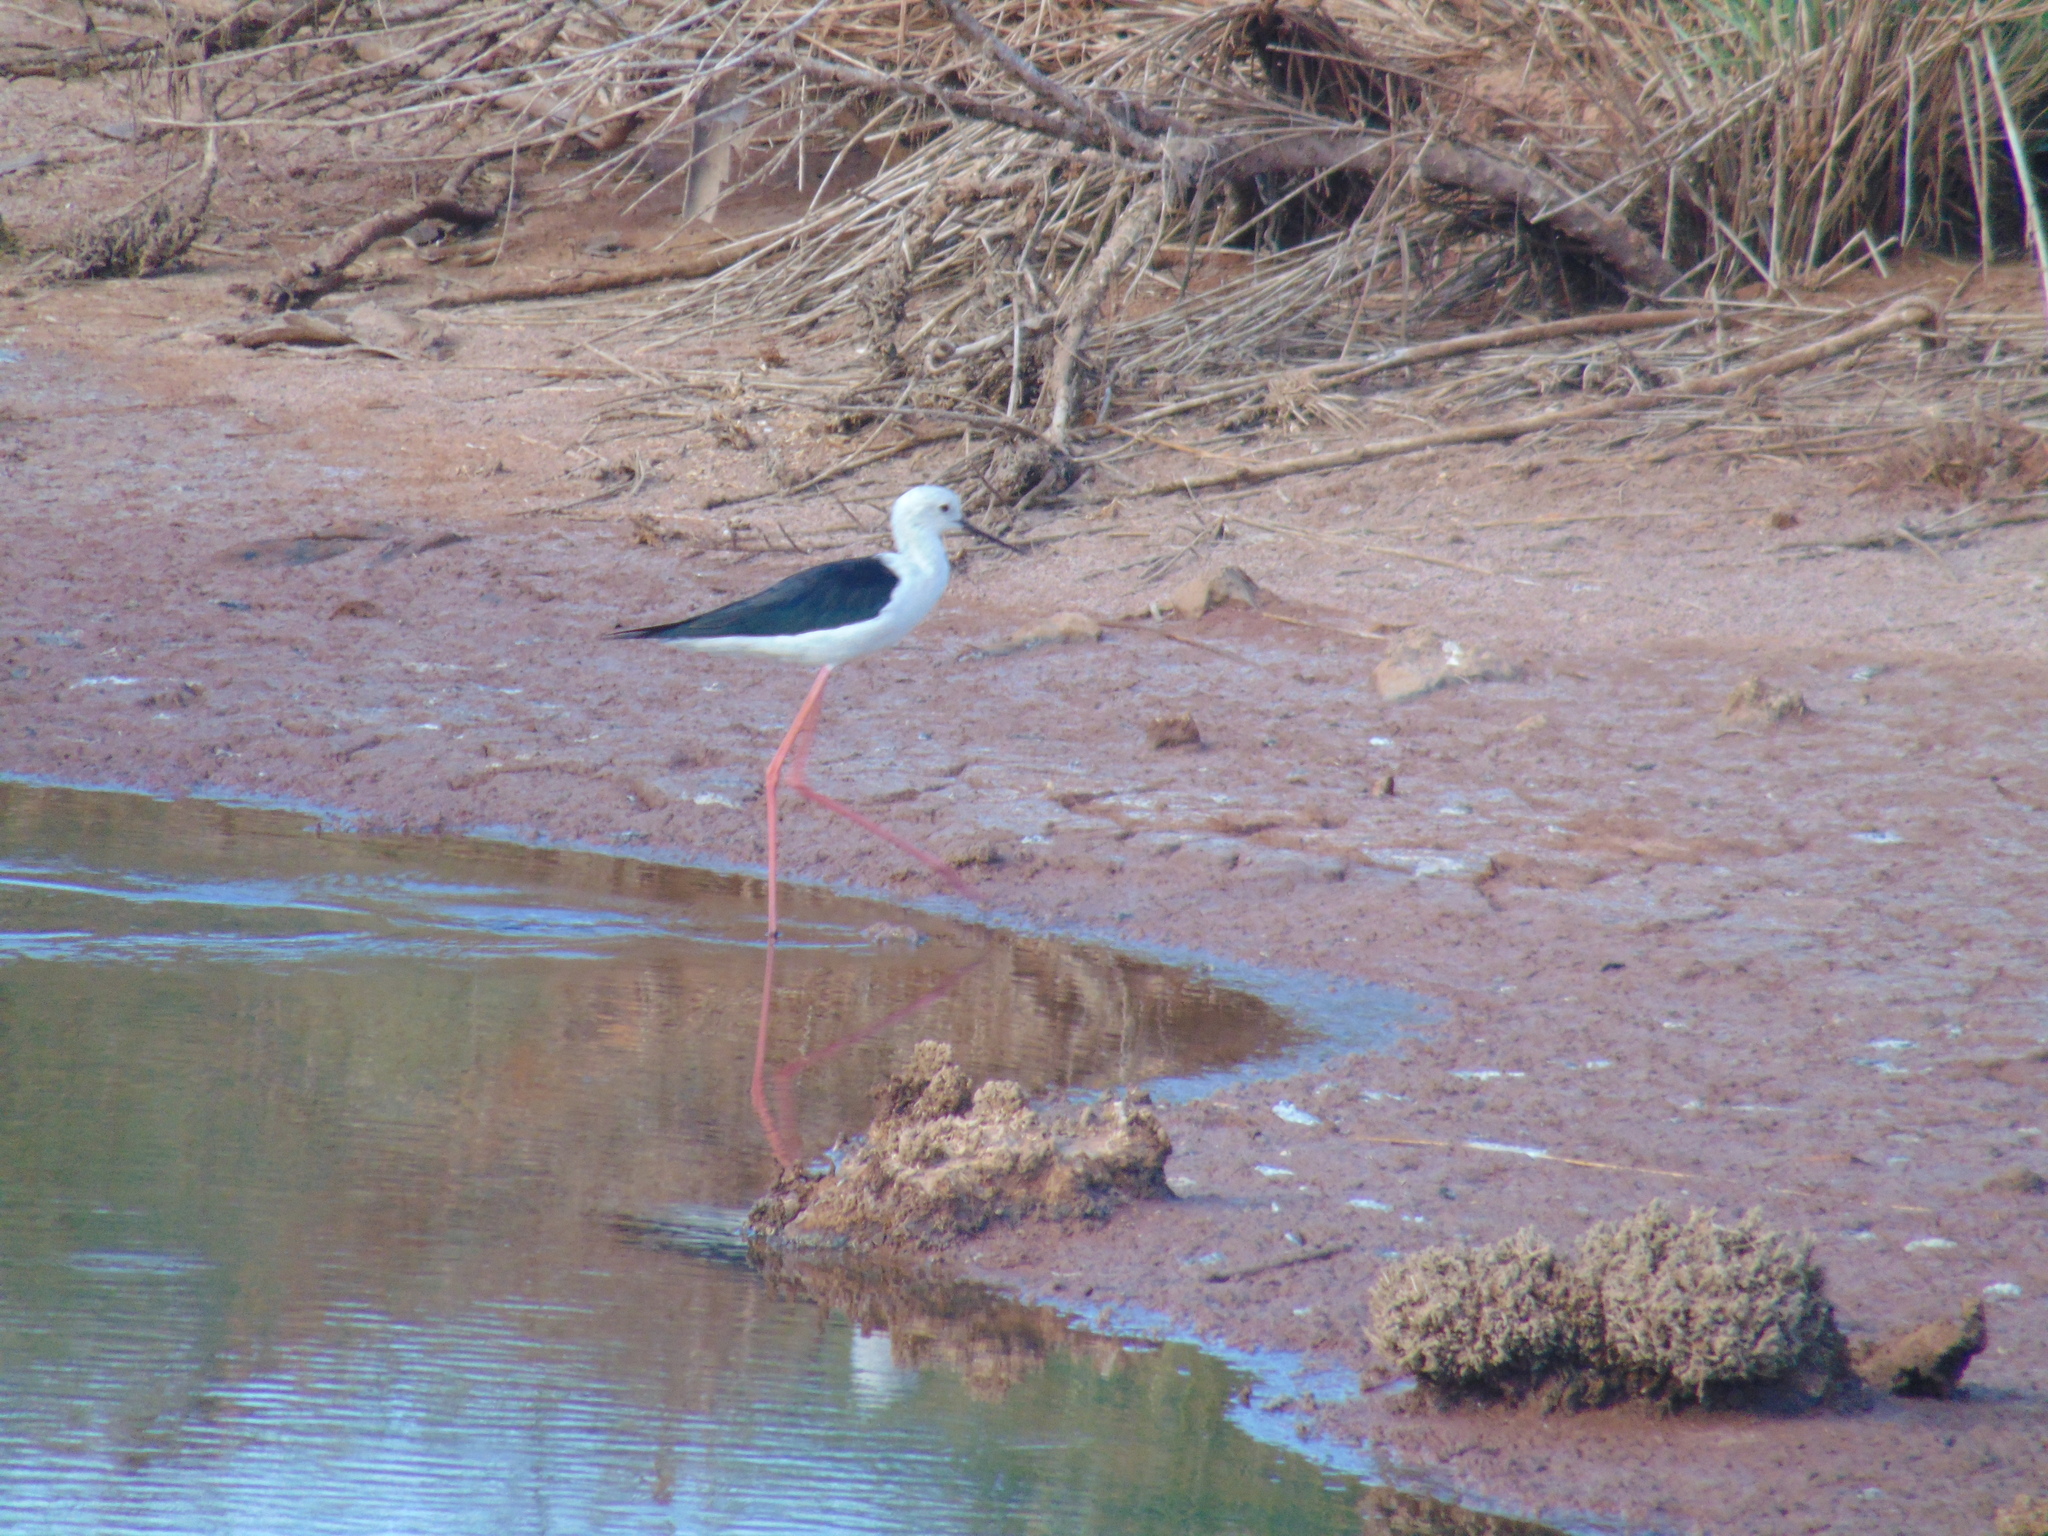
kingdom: Animalia
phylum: Chordata
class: Aves
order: Charadriiformes
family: Recurvirostridae
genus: Himantopus
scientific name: Himantopus himantopus
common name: Black-winged stilt
